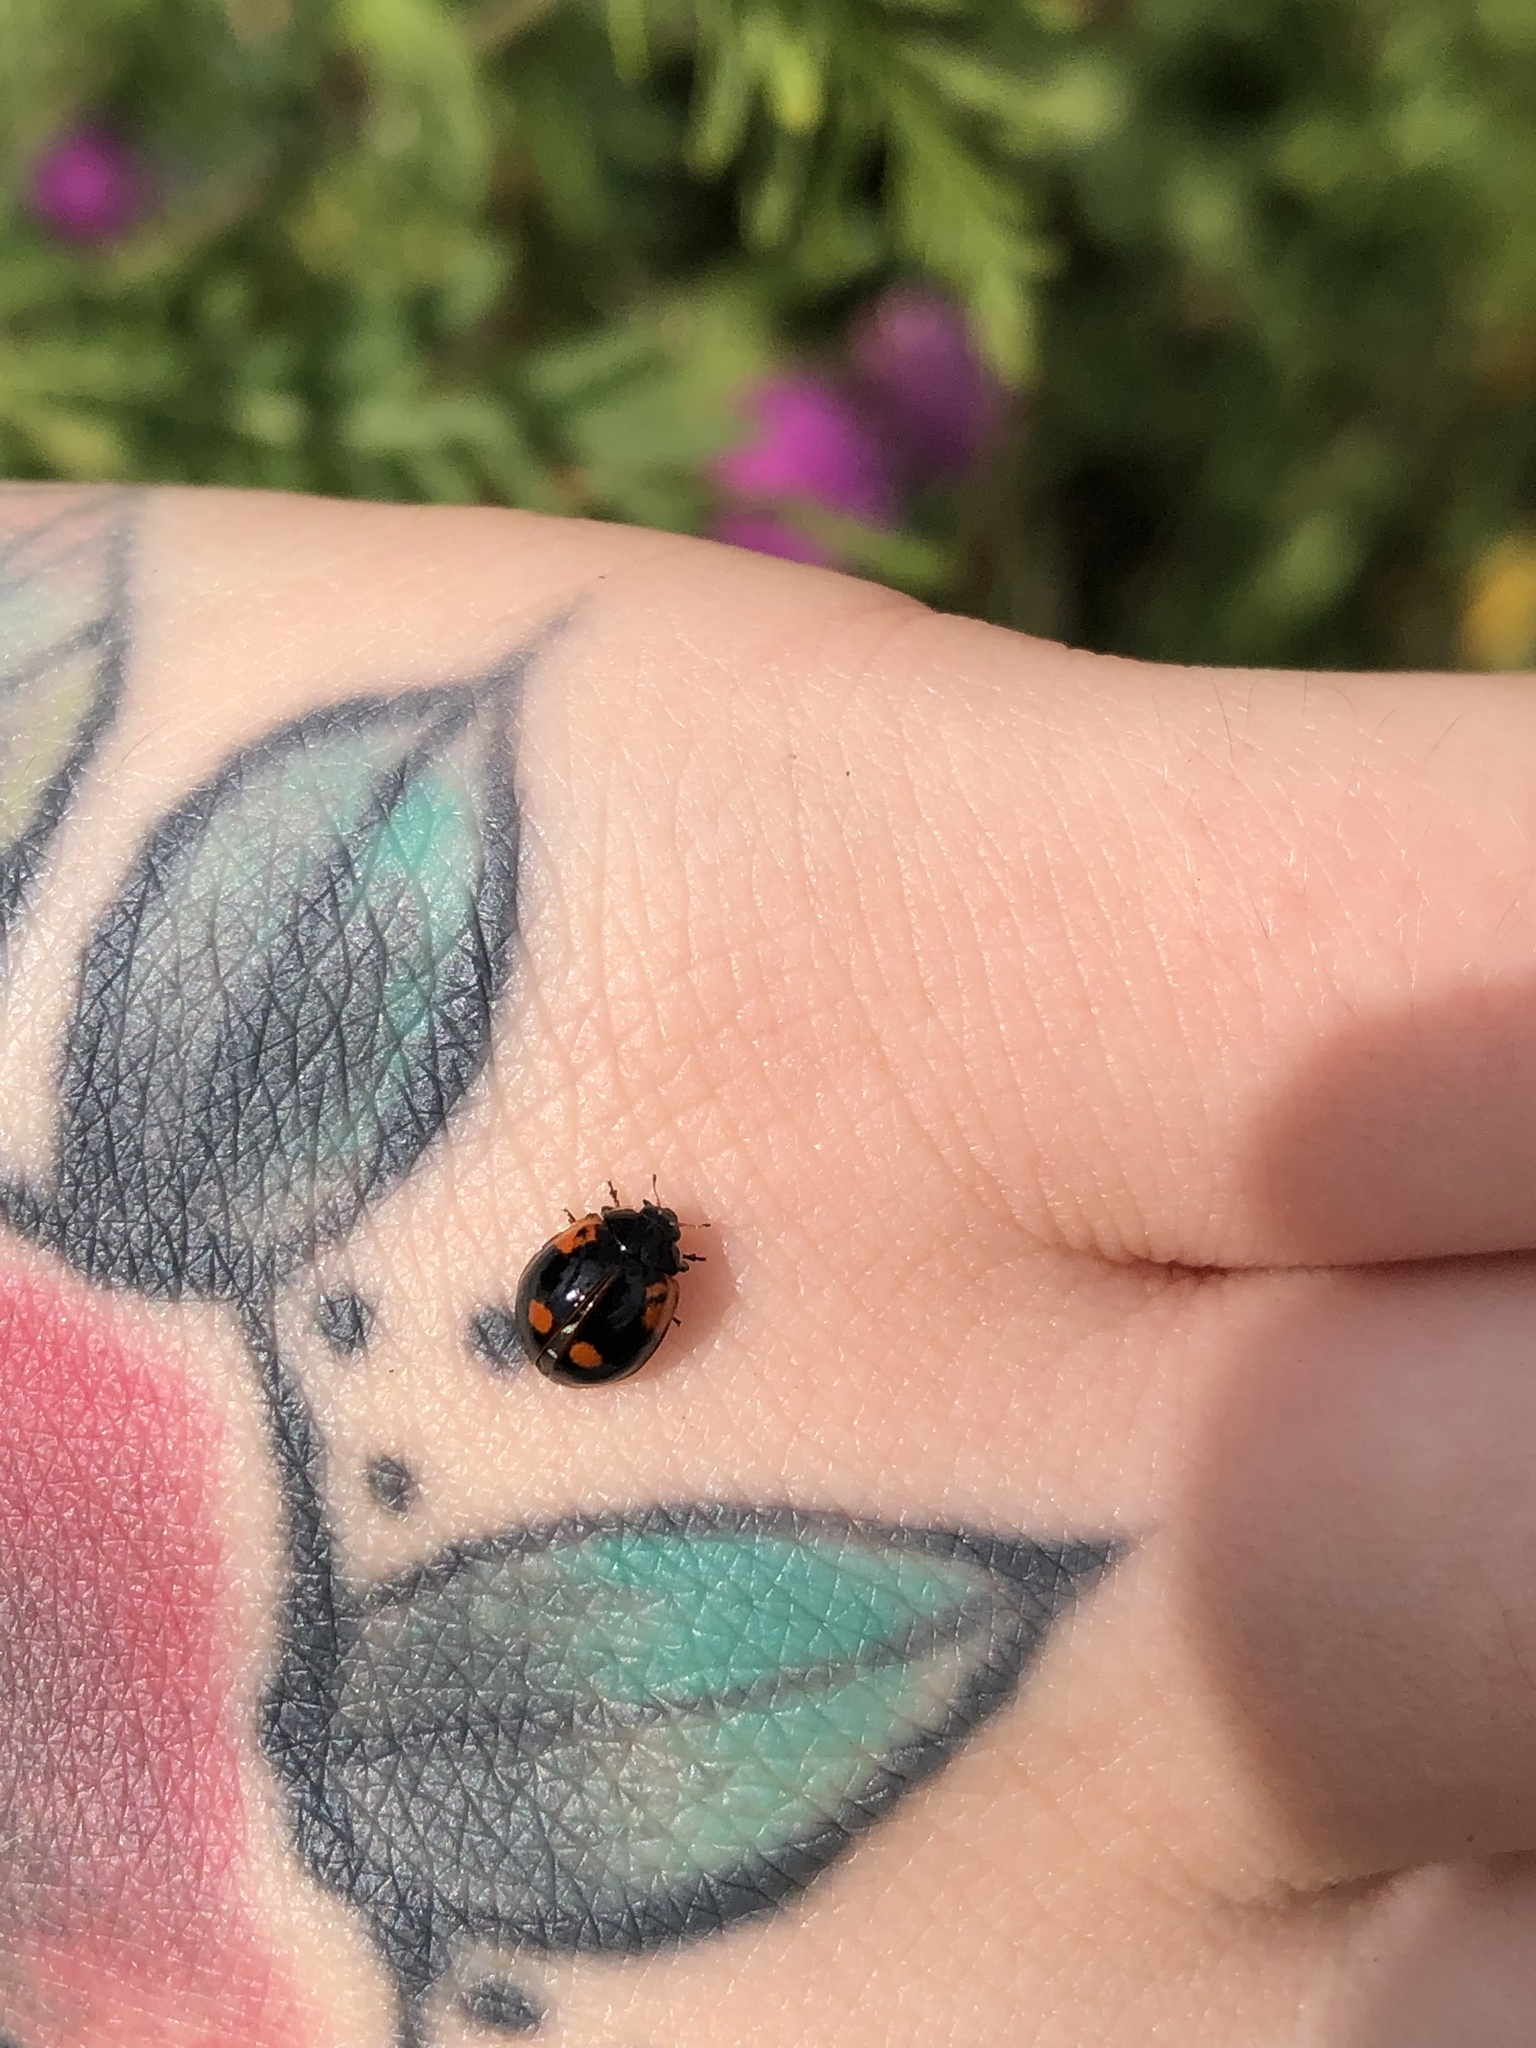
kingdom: Animalia
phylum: Arthropoda
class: Insecta
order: Coleoptera
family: Coccinellidae
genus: Adalia
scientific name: Adalia bipunctata
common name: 2-spot ladybird
